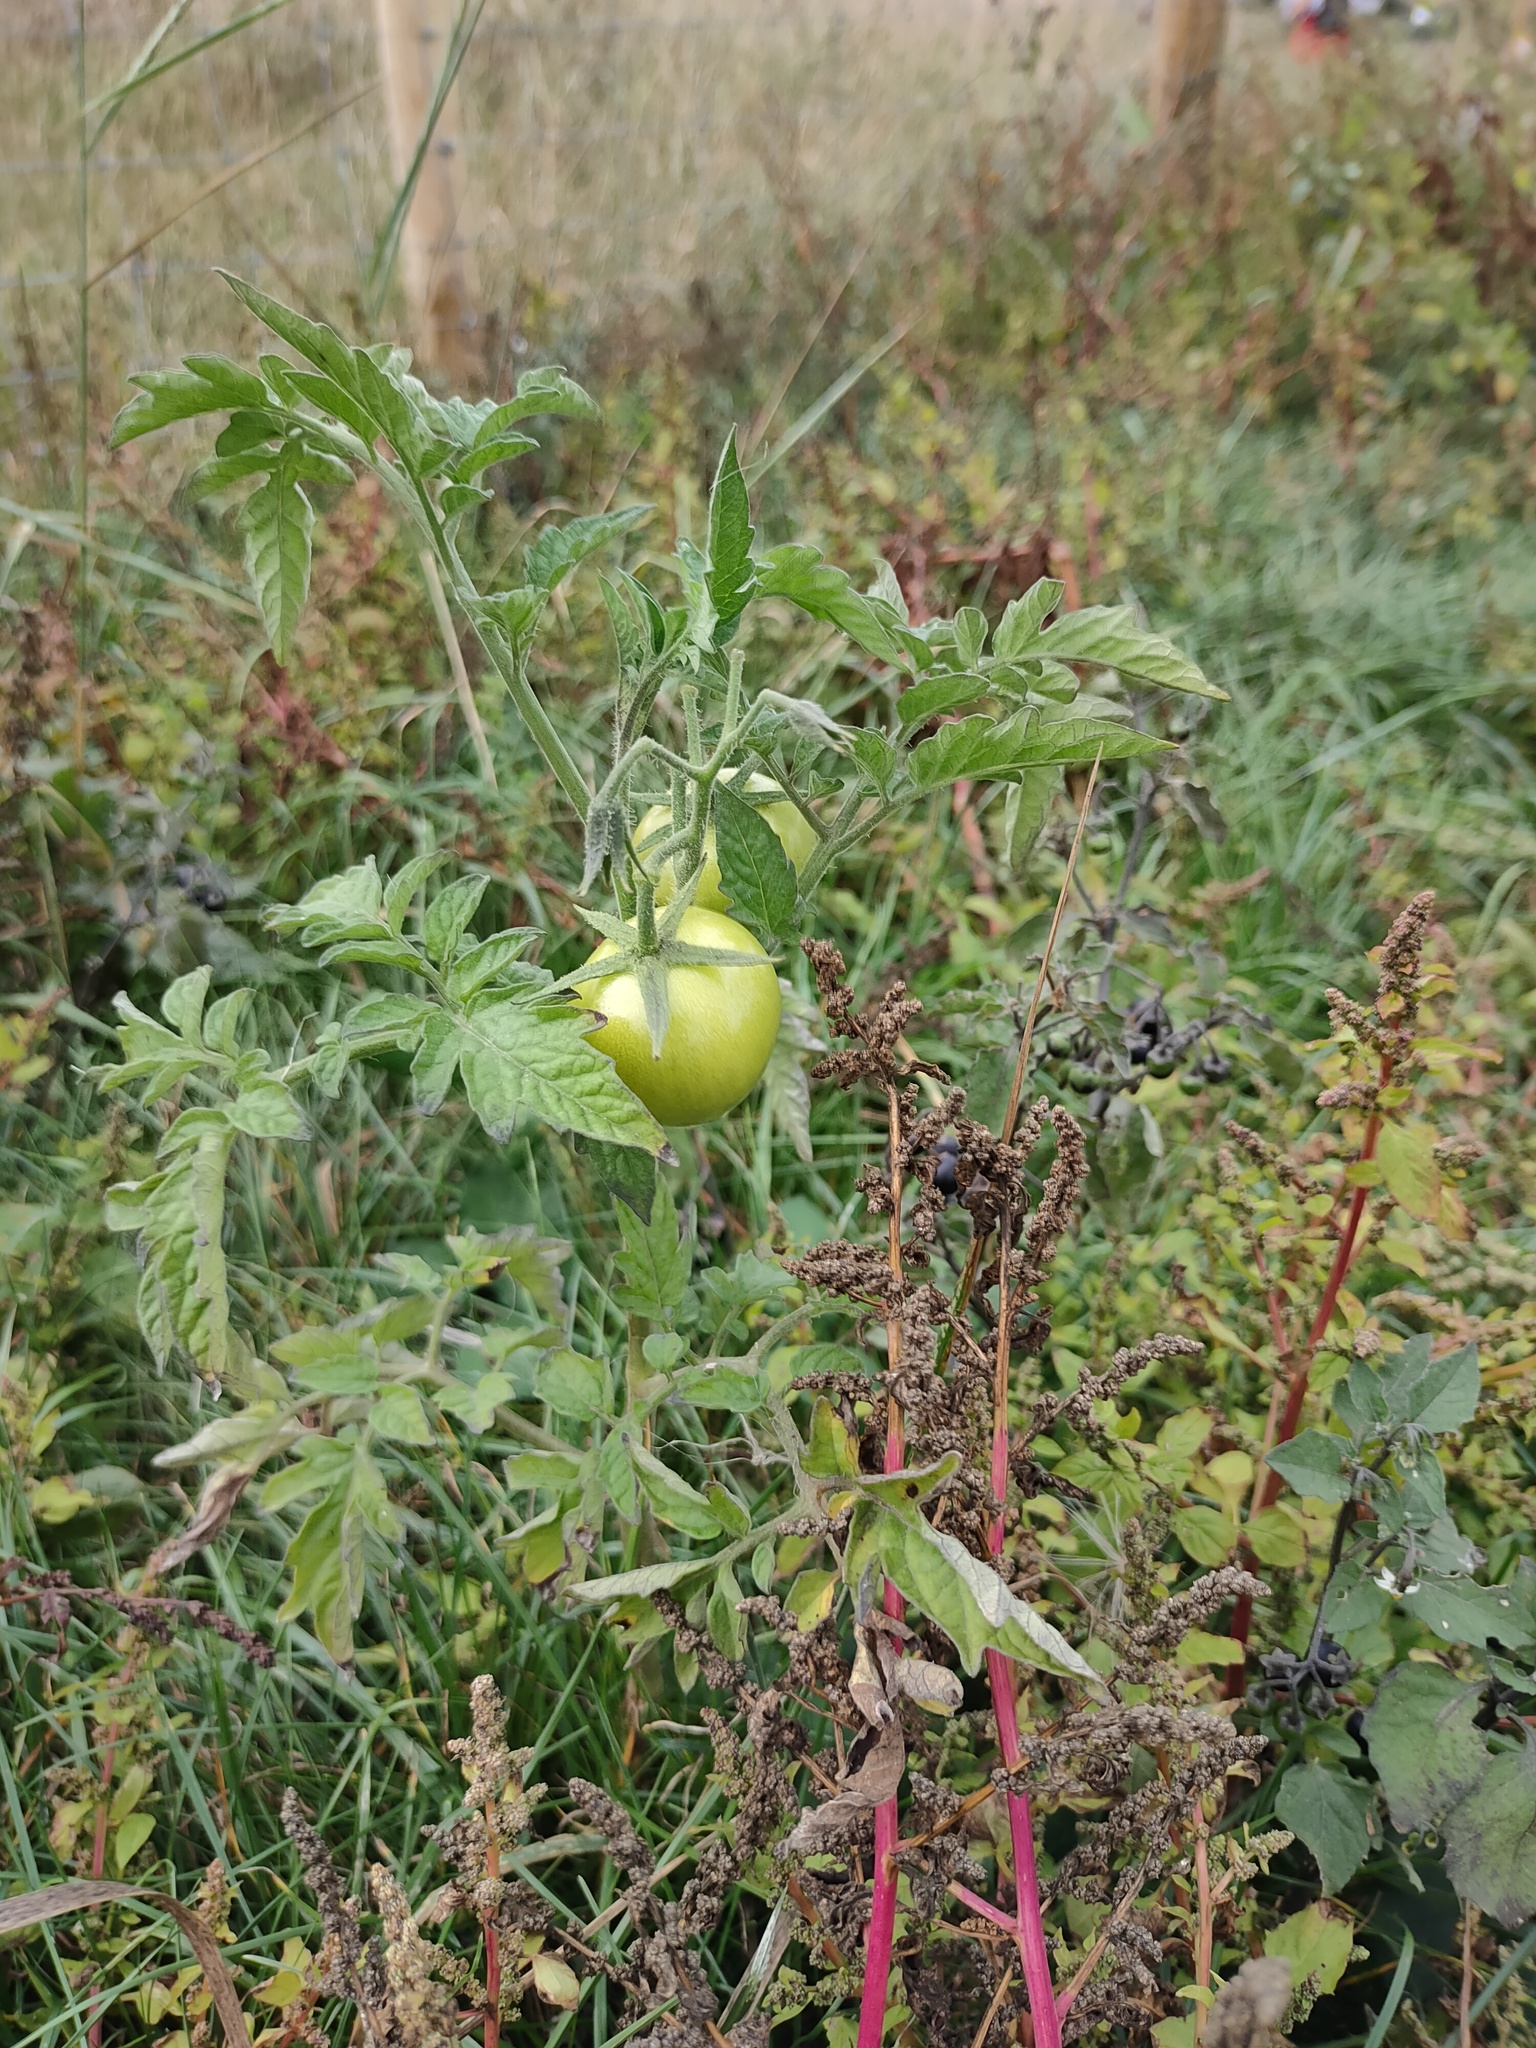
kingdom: Plantae
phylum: Tracheophyta
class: Magnoliopsida
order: Solanales
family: Solanaceae
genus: Solanum
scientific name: Solanum lycopersicum
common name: Garden tomato
